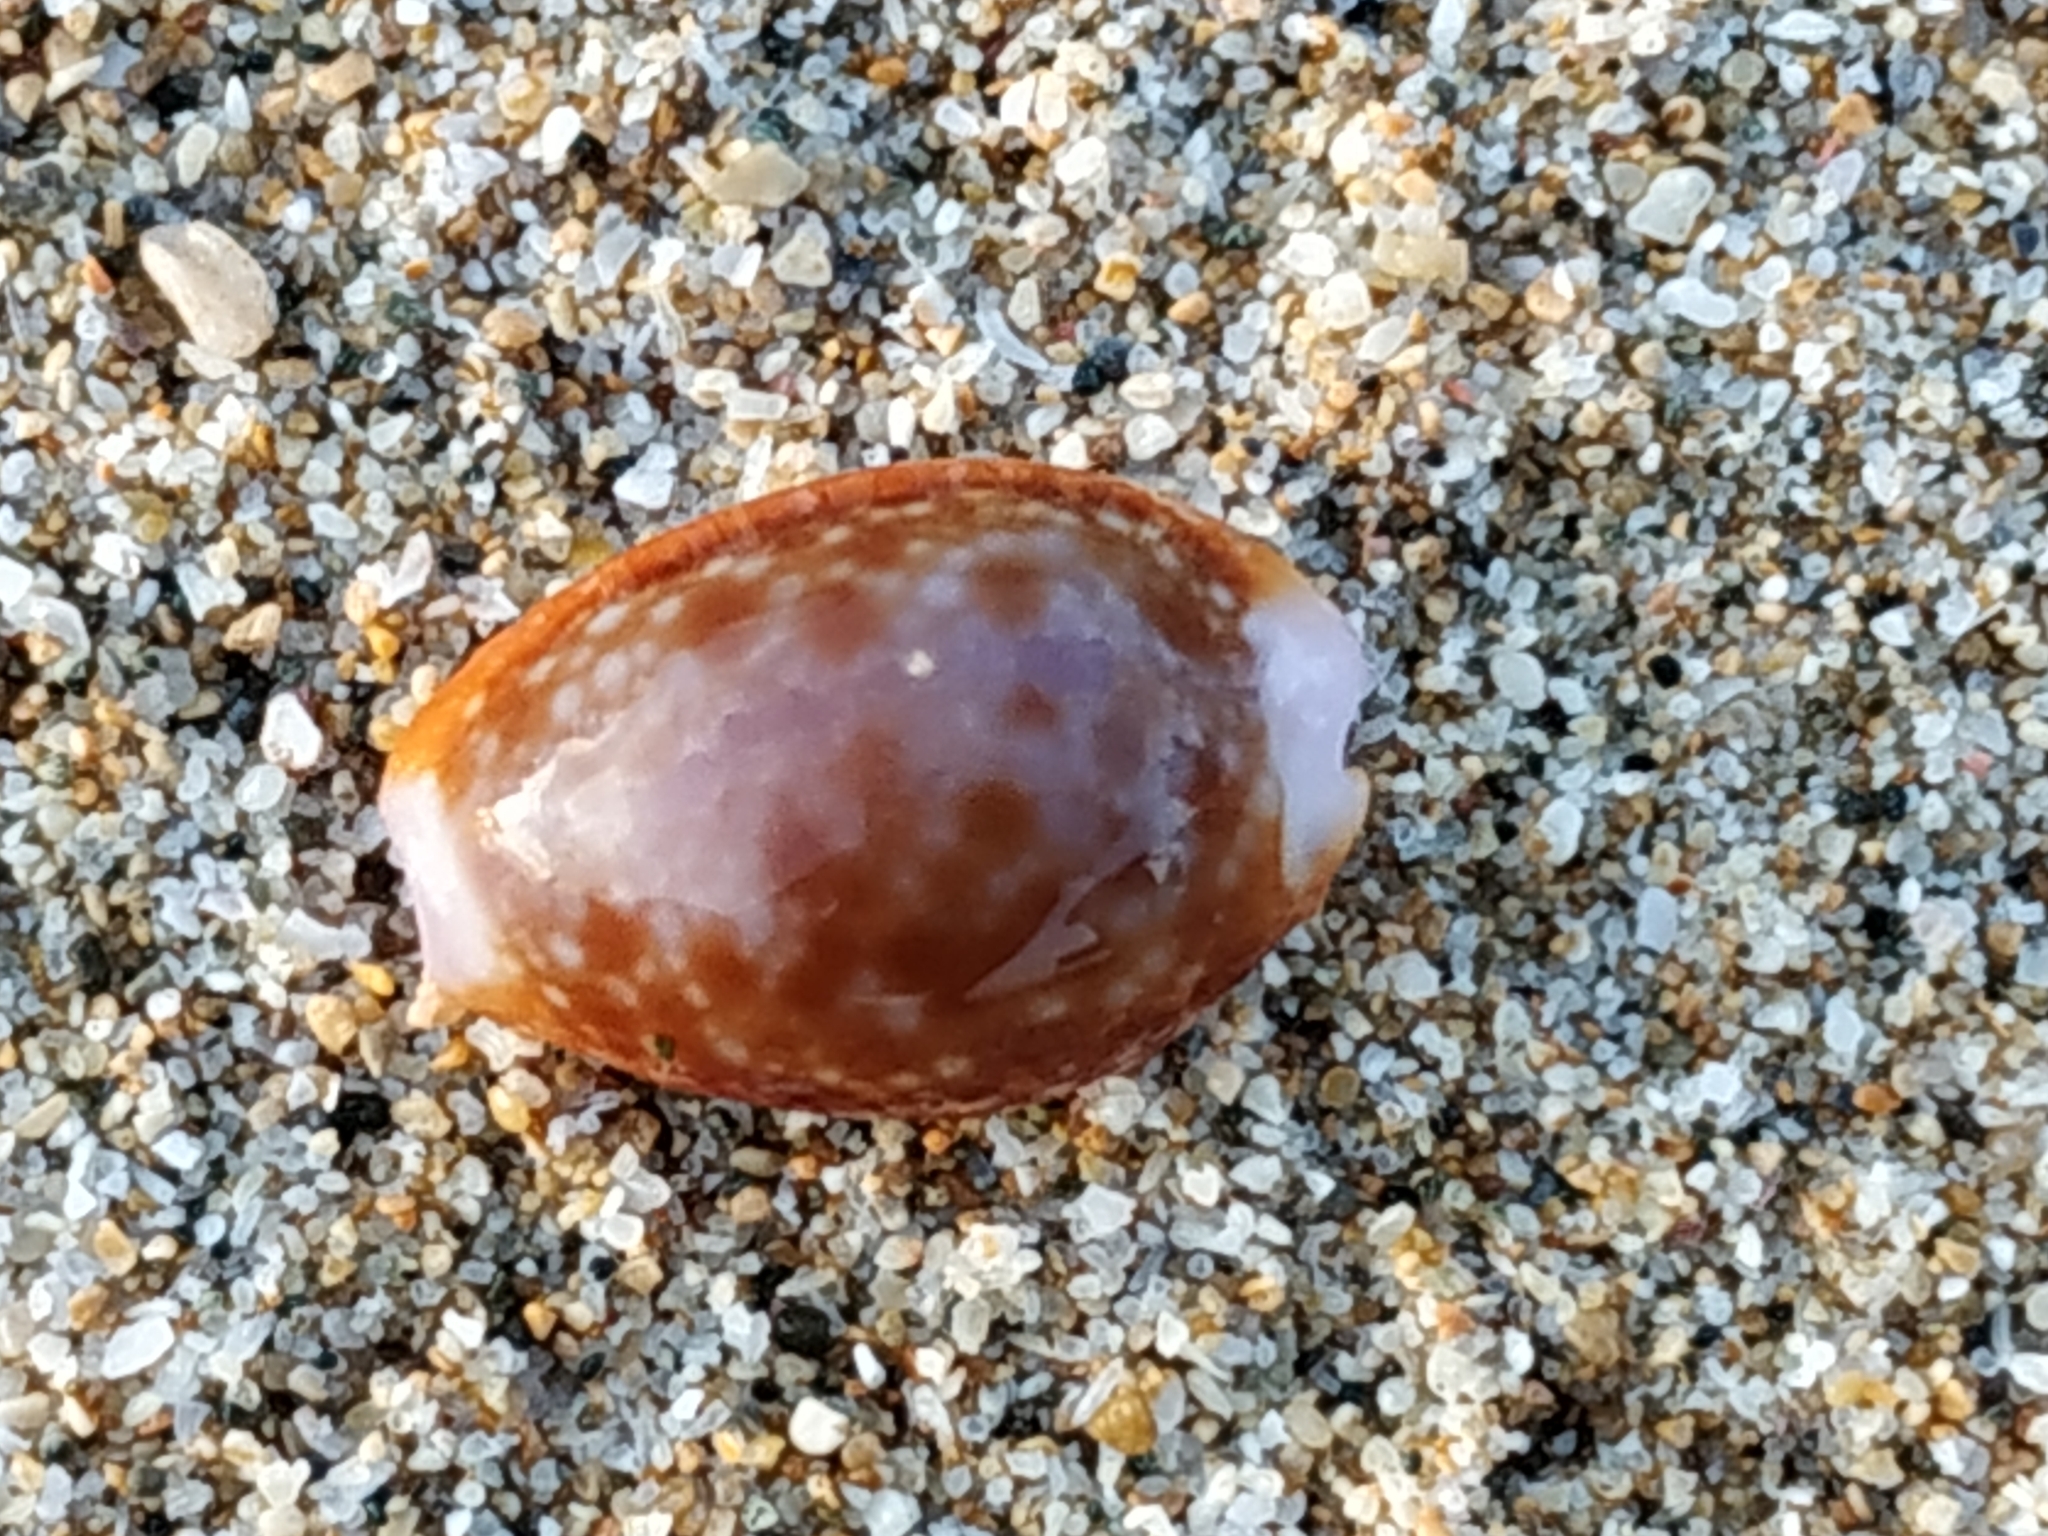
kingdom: Animalia
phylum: Mollusca
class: Gastropoda
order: Littorinimorpha
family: Cypraeidae
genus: Naria
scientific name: Naria helvola
